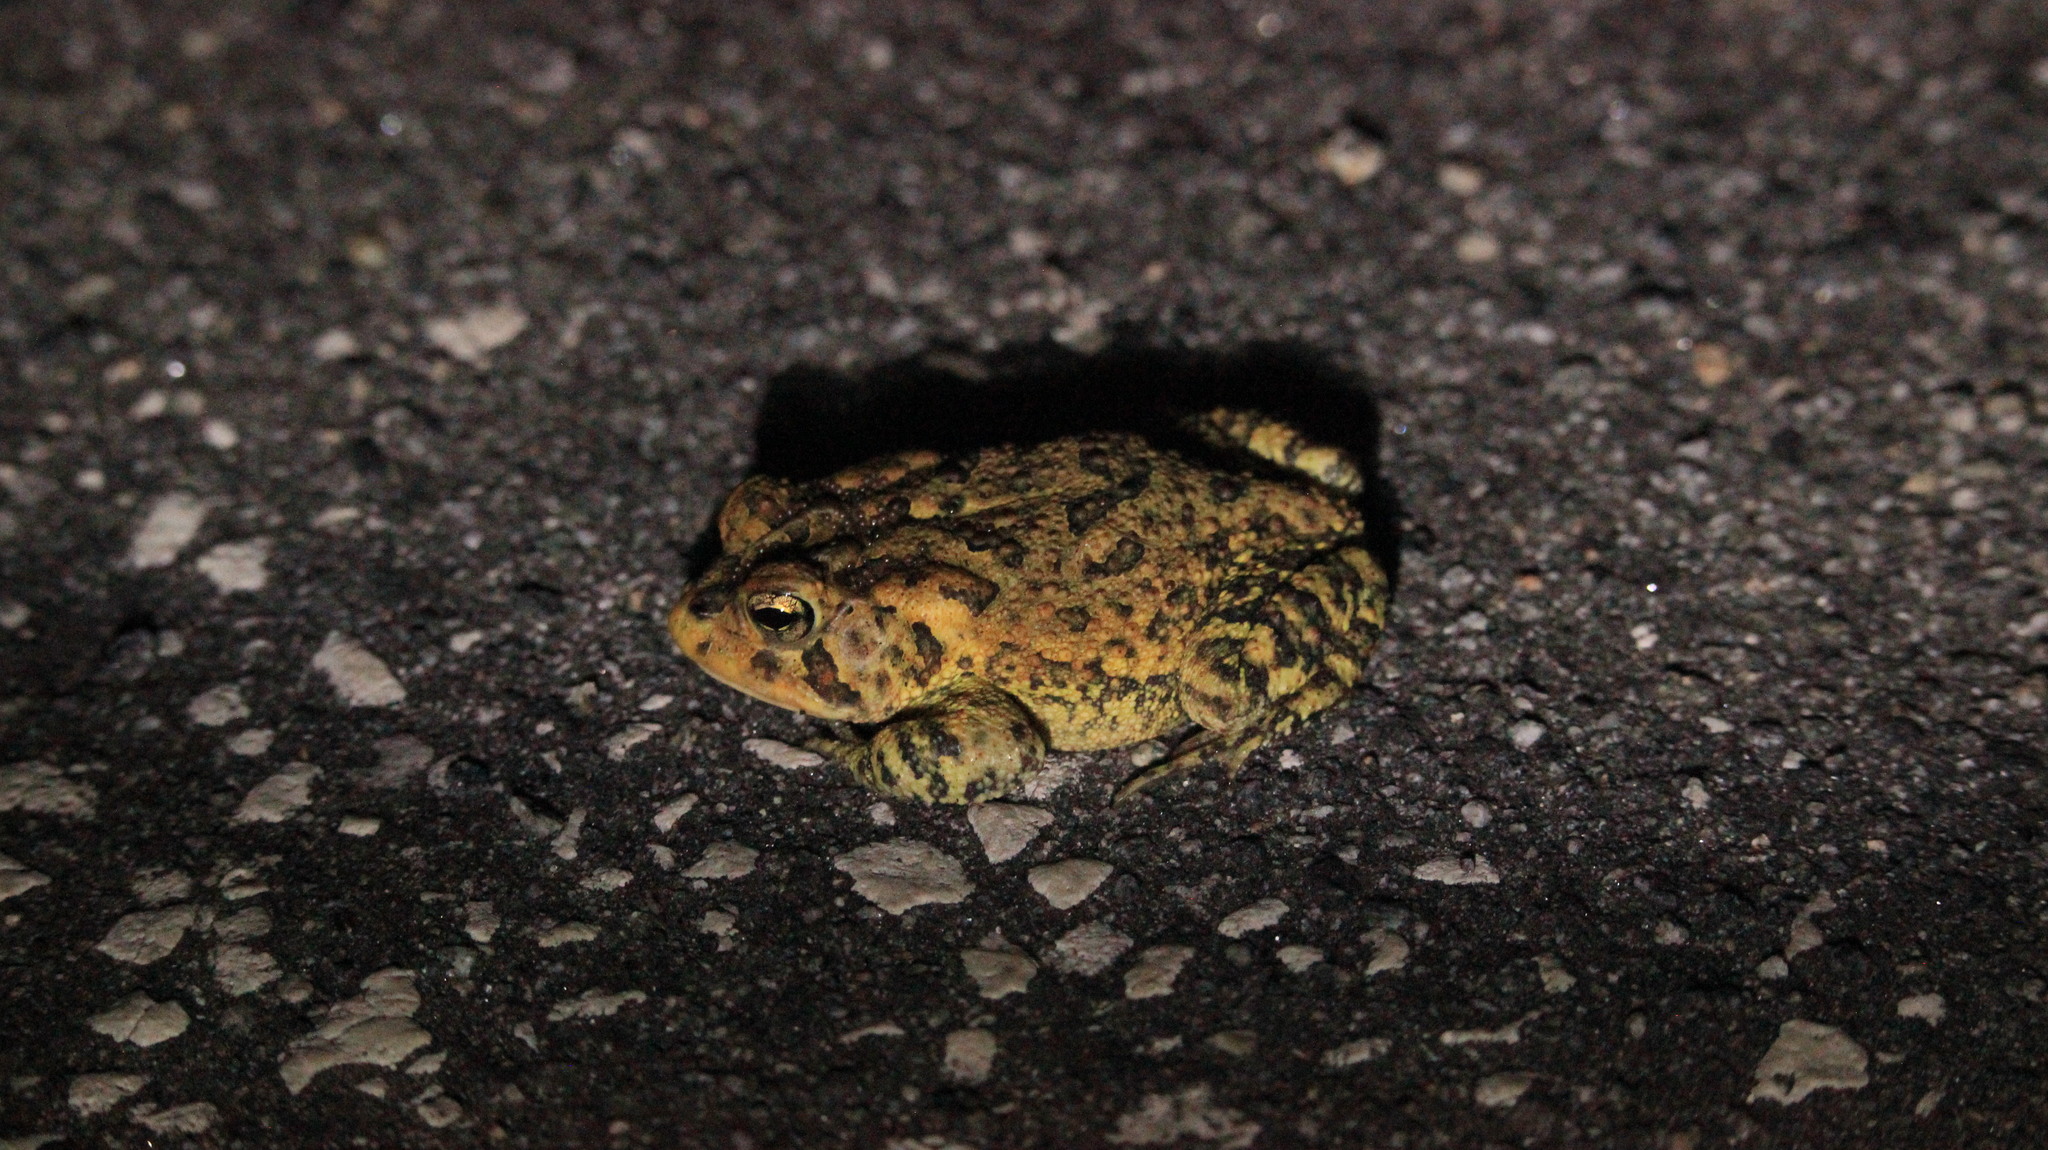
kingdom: Animalia
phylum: Chordata
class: Amphibia
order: Anura
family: Bufonidae
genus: Anaxyrus
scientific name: Anaxyrus terrestris
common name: Southern toad
